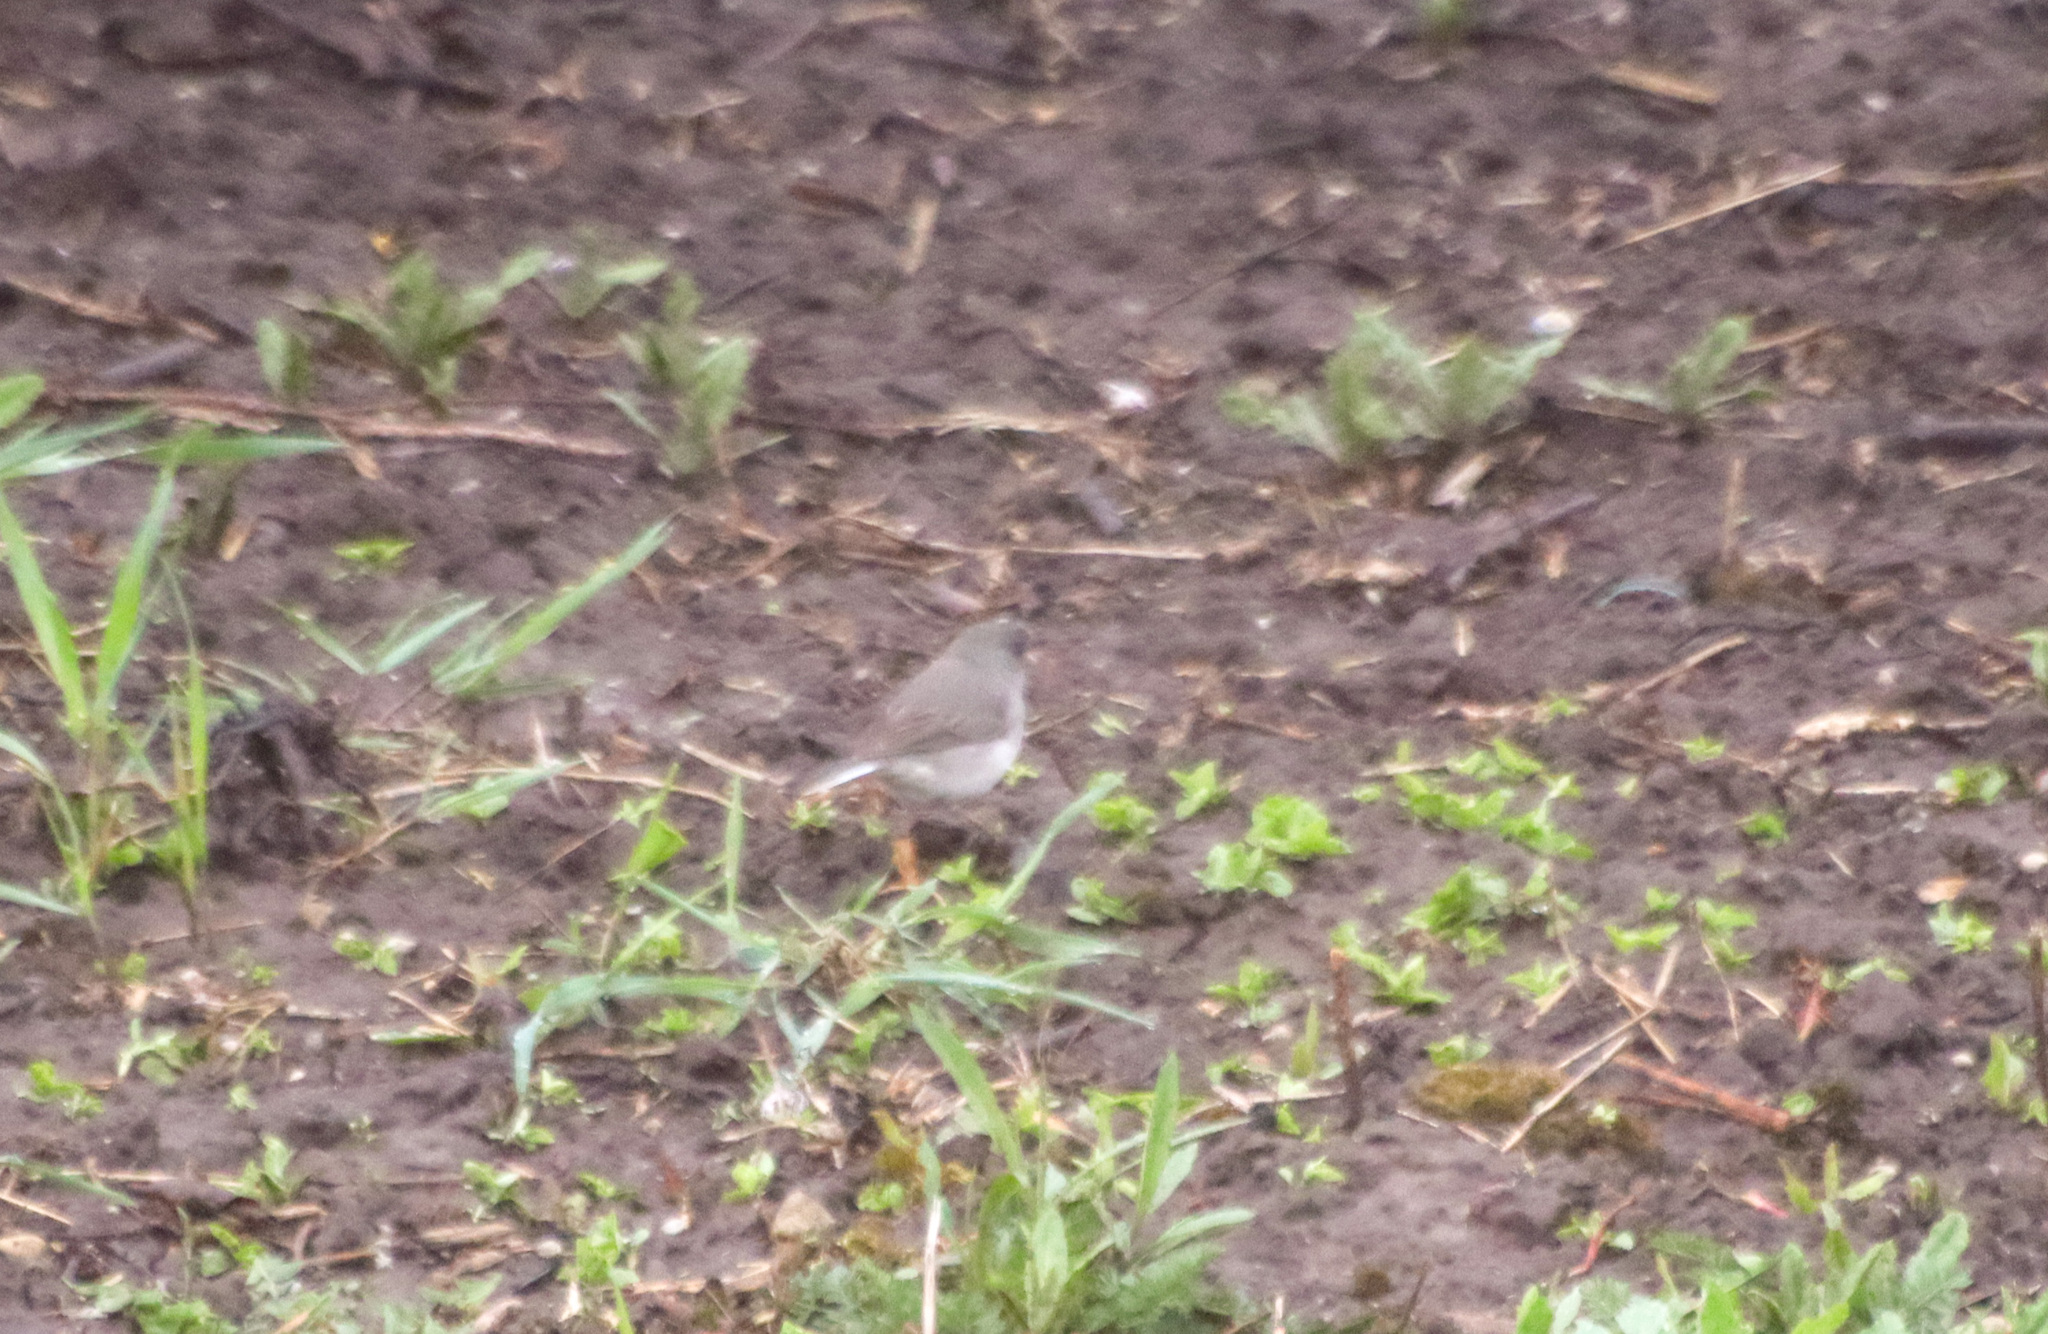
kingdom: Animalia
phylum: Chordata
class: Aves
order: Passeriformes
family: Passerellidae
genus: Junco
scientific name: Junco hyemalis
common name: Dark-eyed junco
